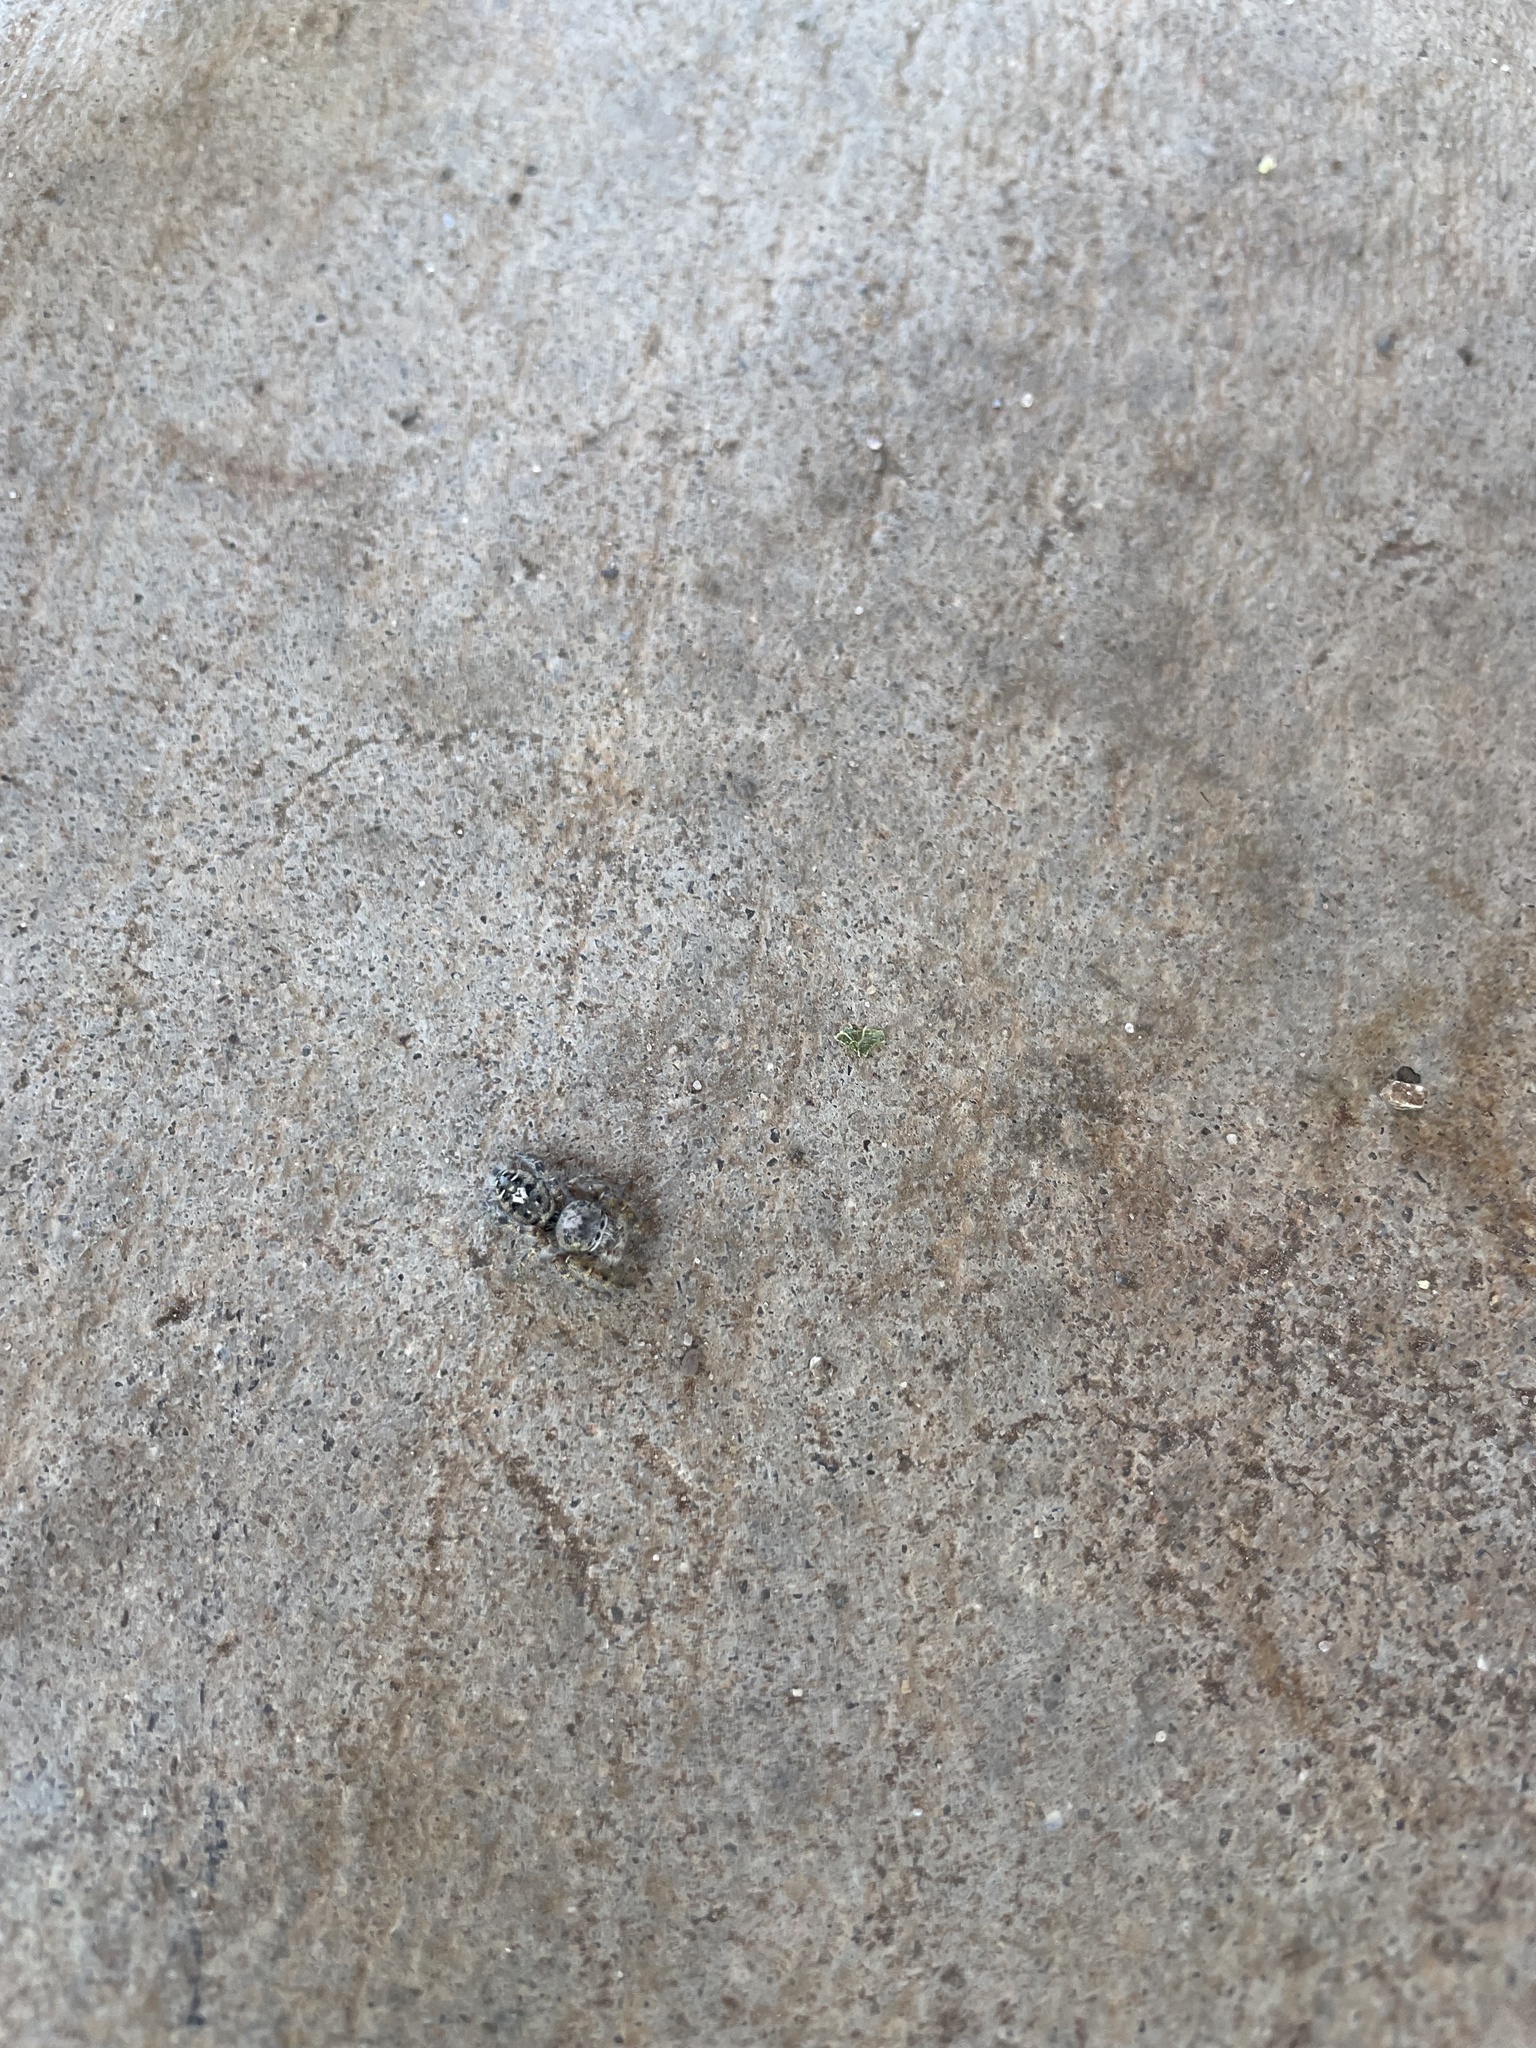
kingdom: Animalia
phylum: Arthropoda
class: Arachnida
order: Araneae
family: Salticidae
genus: Phidippus
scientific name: Phidippus putnami
